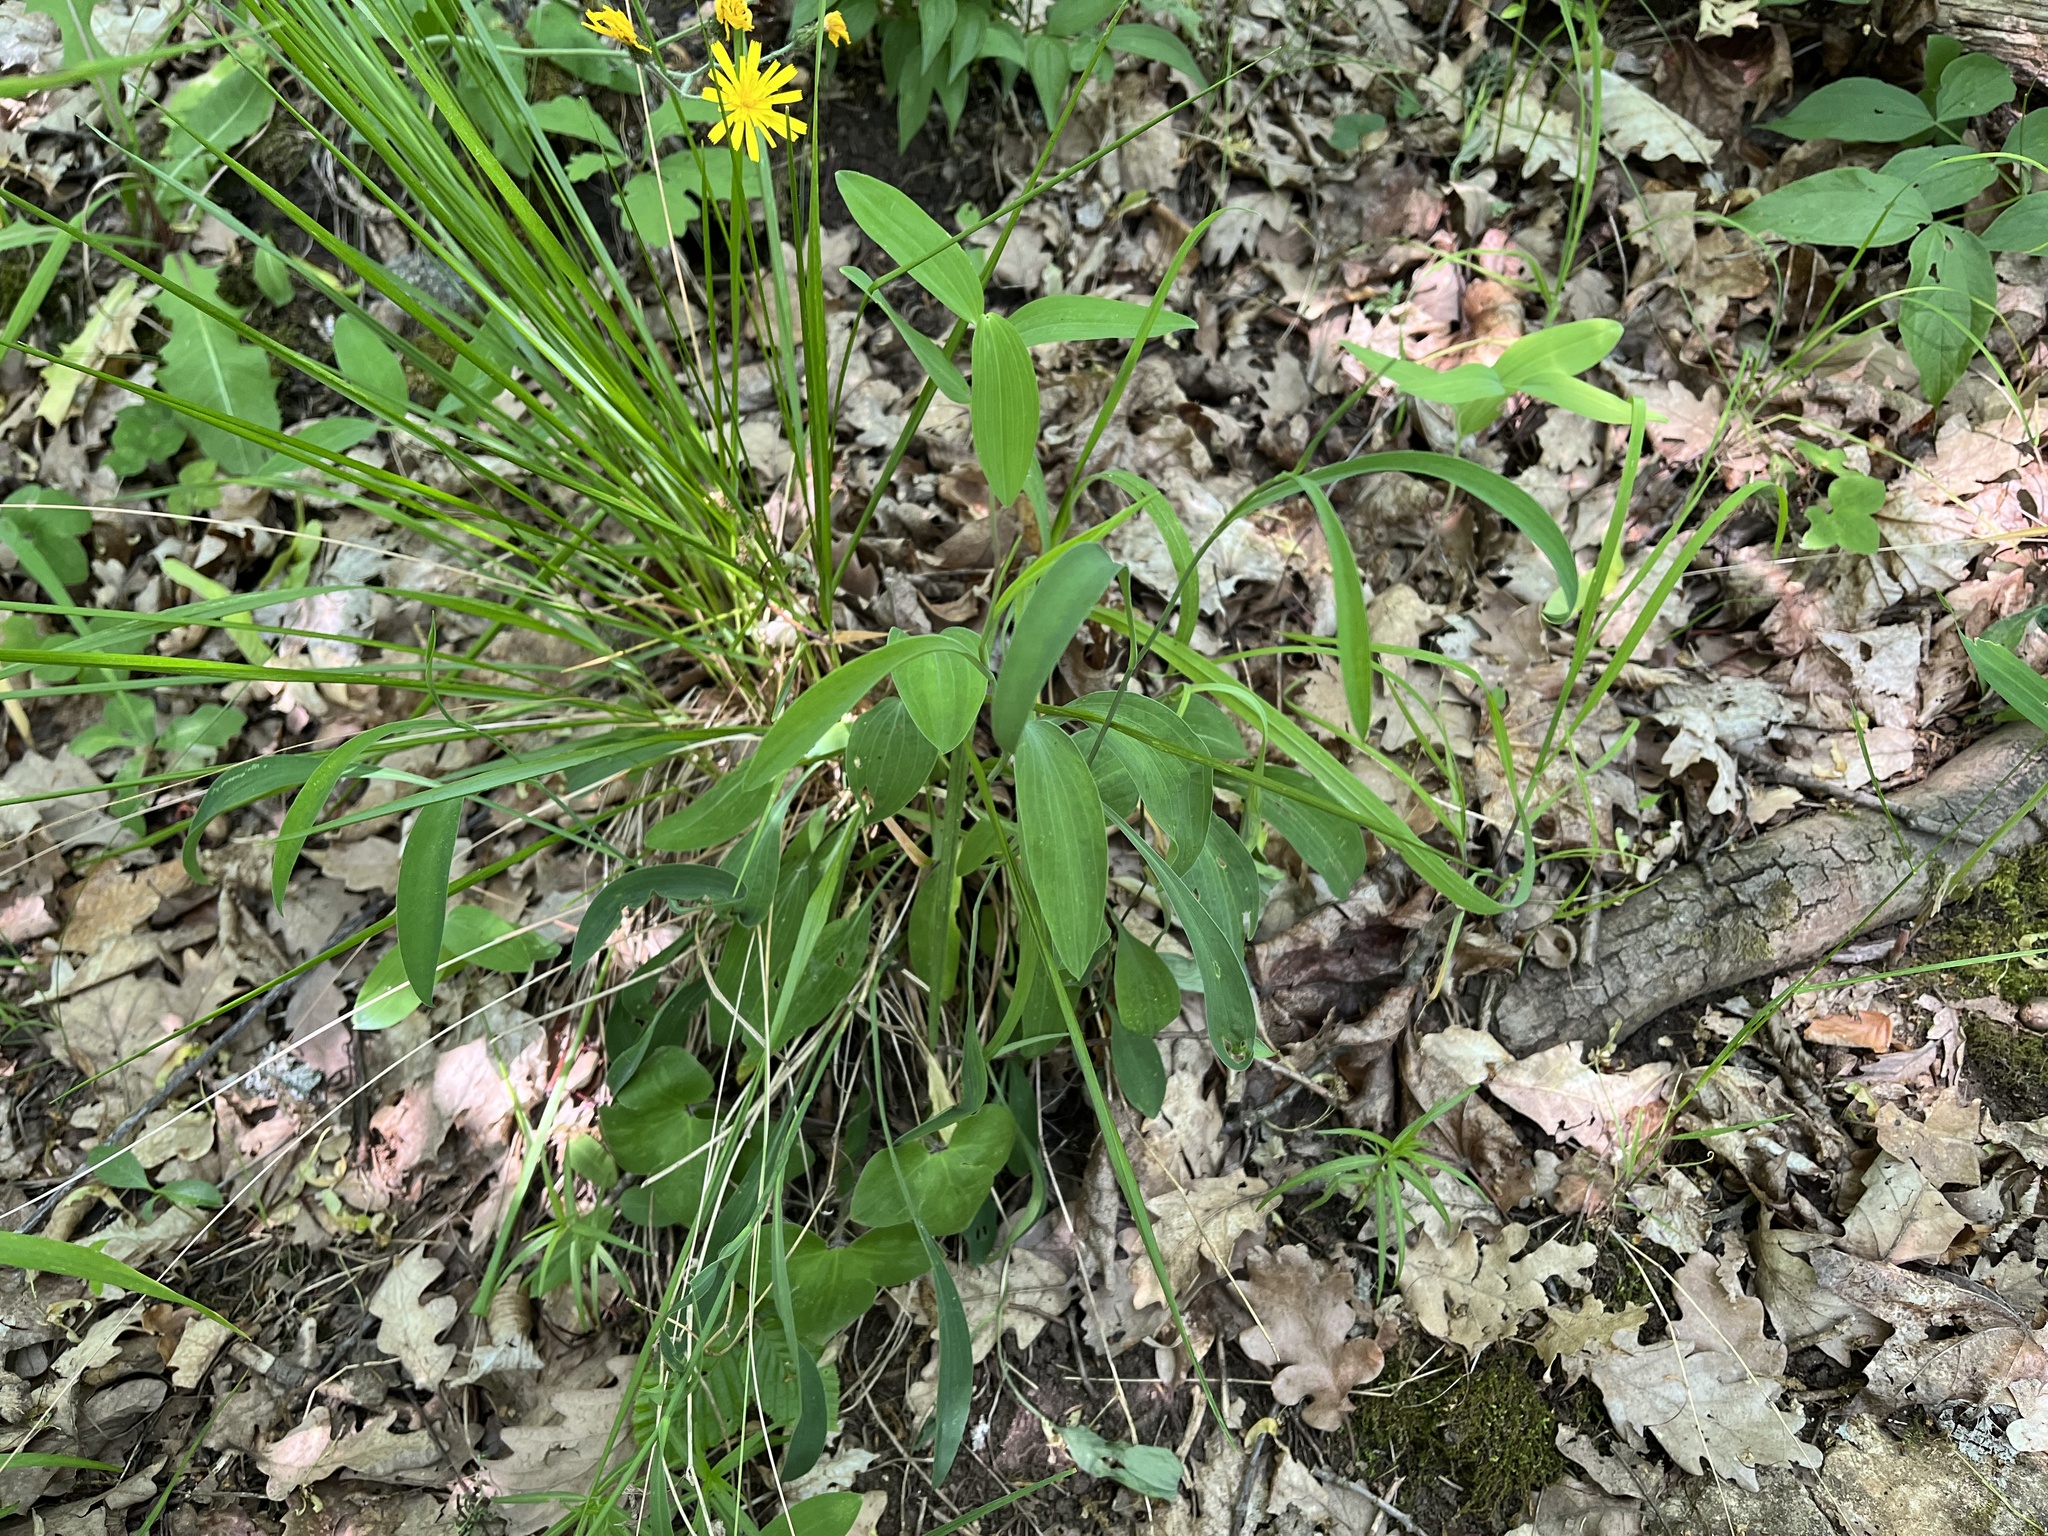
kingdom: Plantae
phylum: Tracheophyta
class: Magnoliopsida
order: Apiales
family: Apiaceae
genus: Bupleurum
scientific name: Bupleurum falcatum
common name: Sickle-leaved hare's-ear
